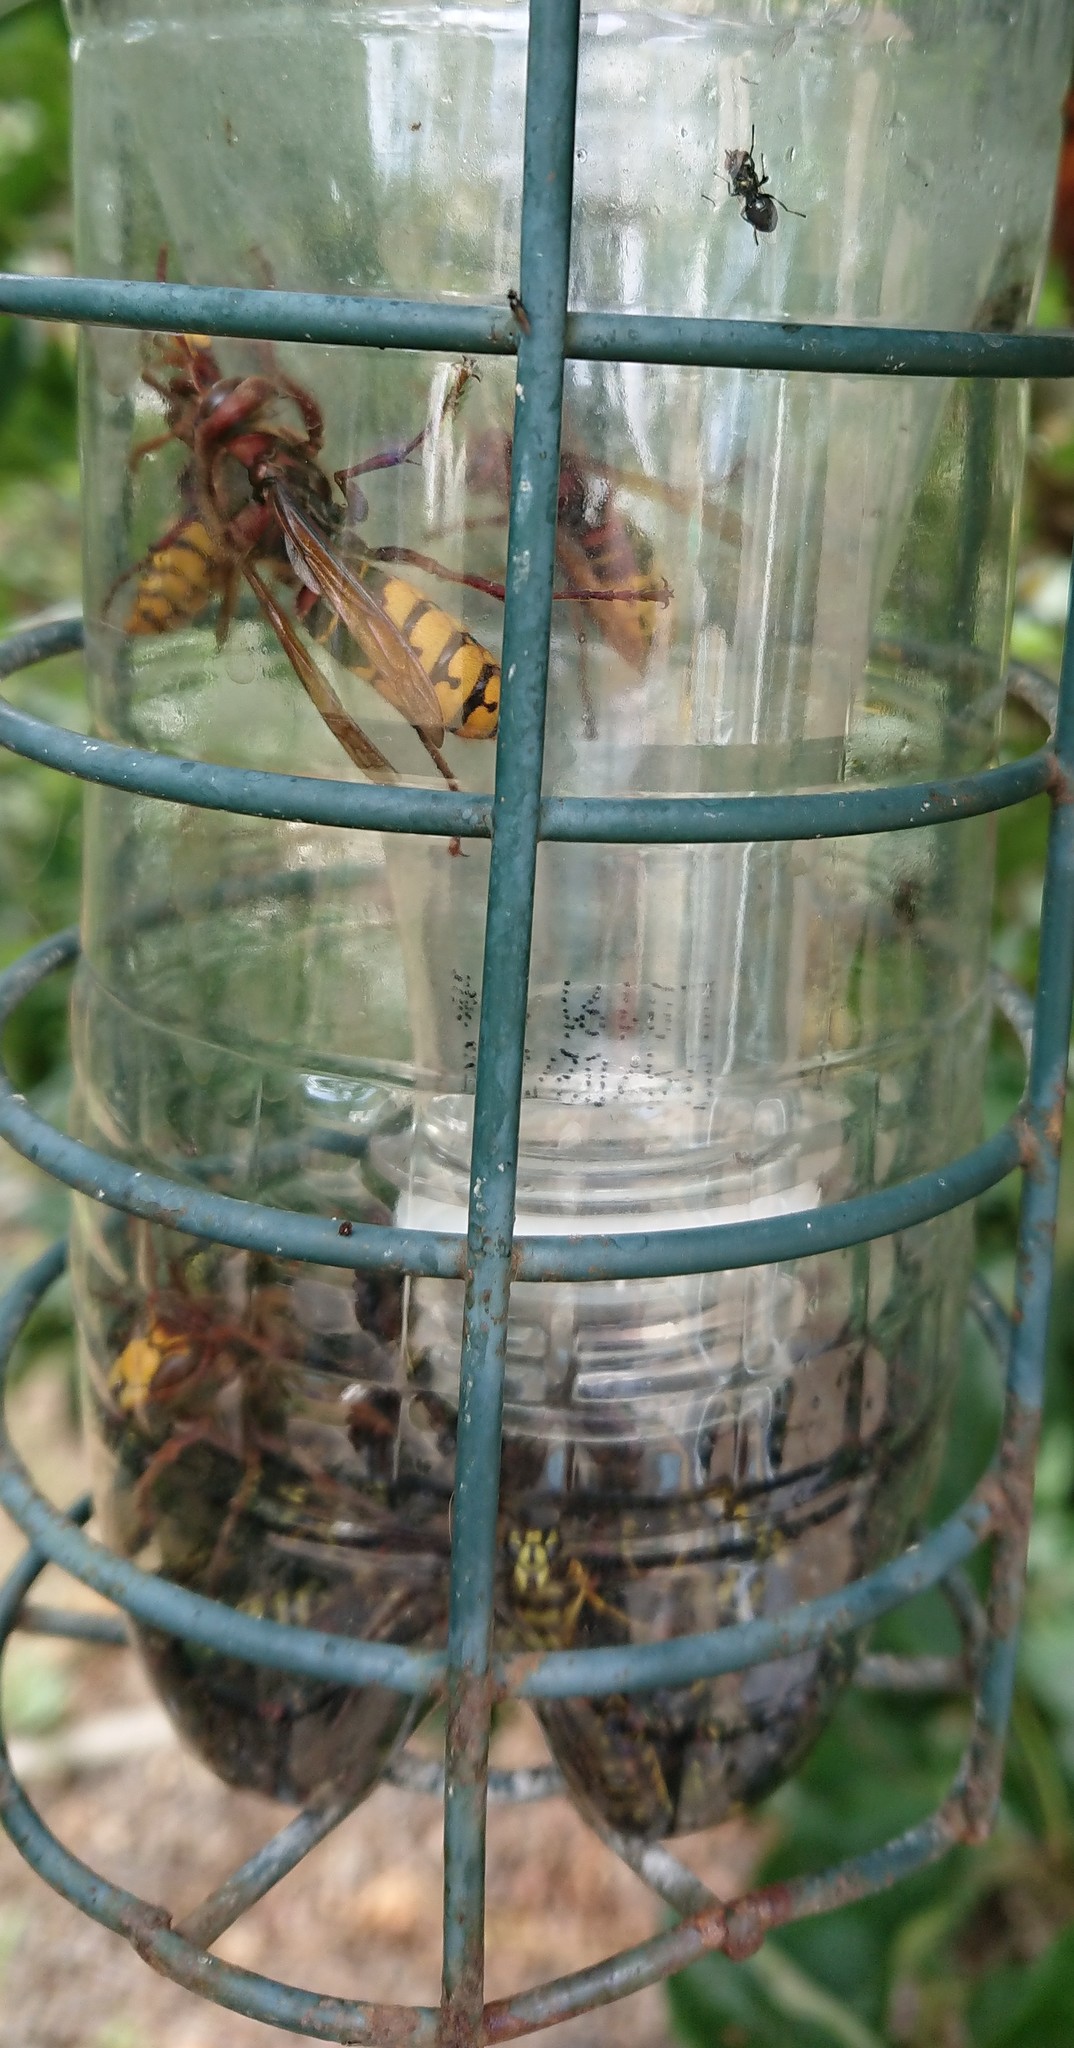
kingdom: Animalia
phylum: Arthropoda
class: Insecta
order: Hymenoptera
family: Vespidae
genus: Vespa
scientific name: Vespa crabro
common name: Hornet
